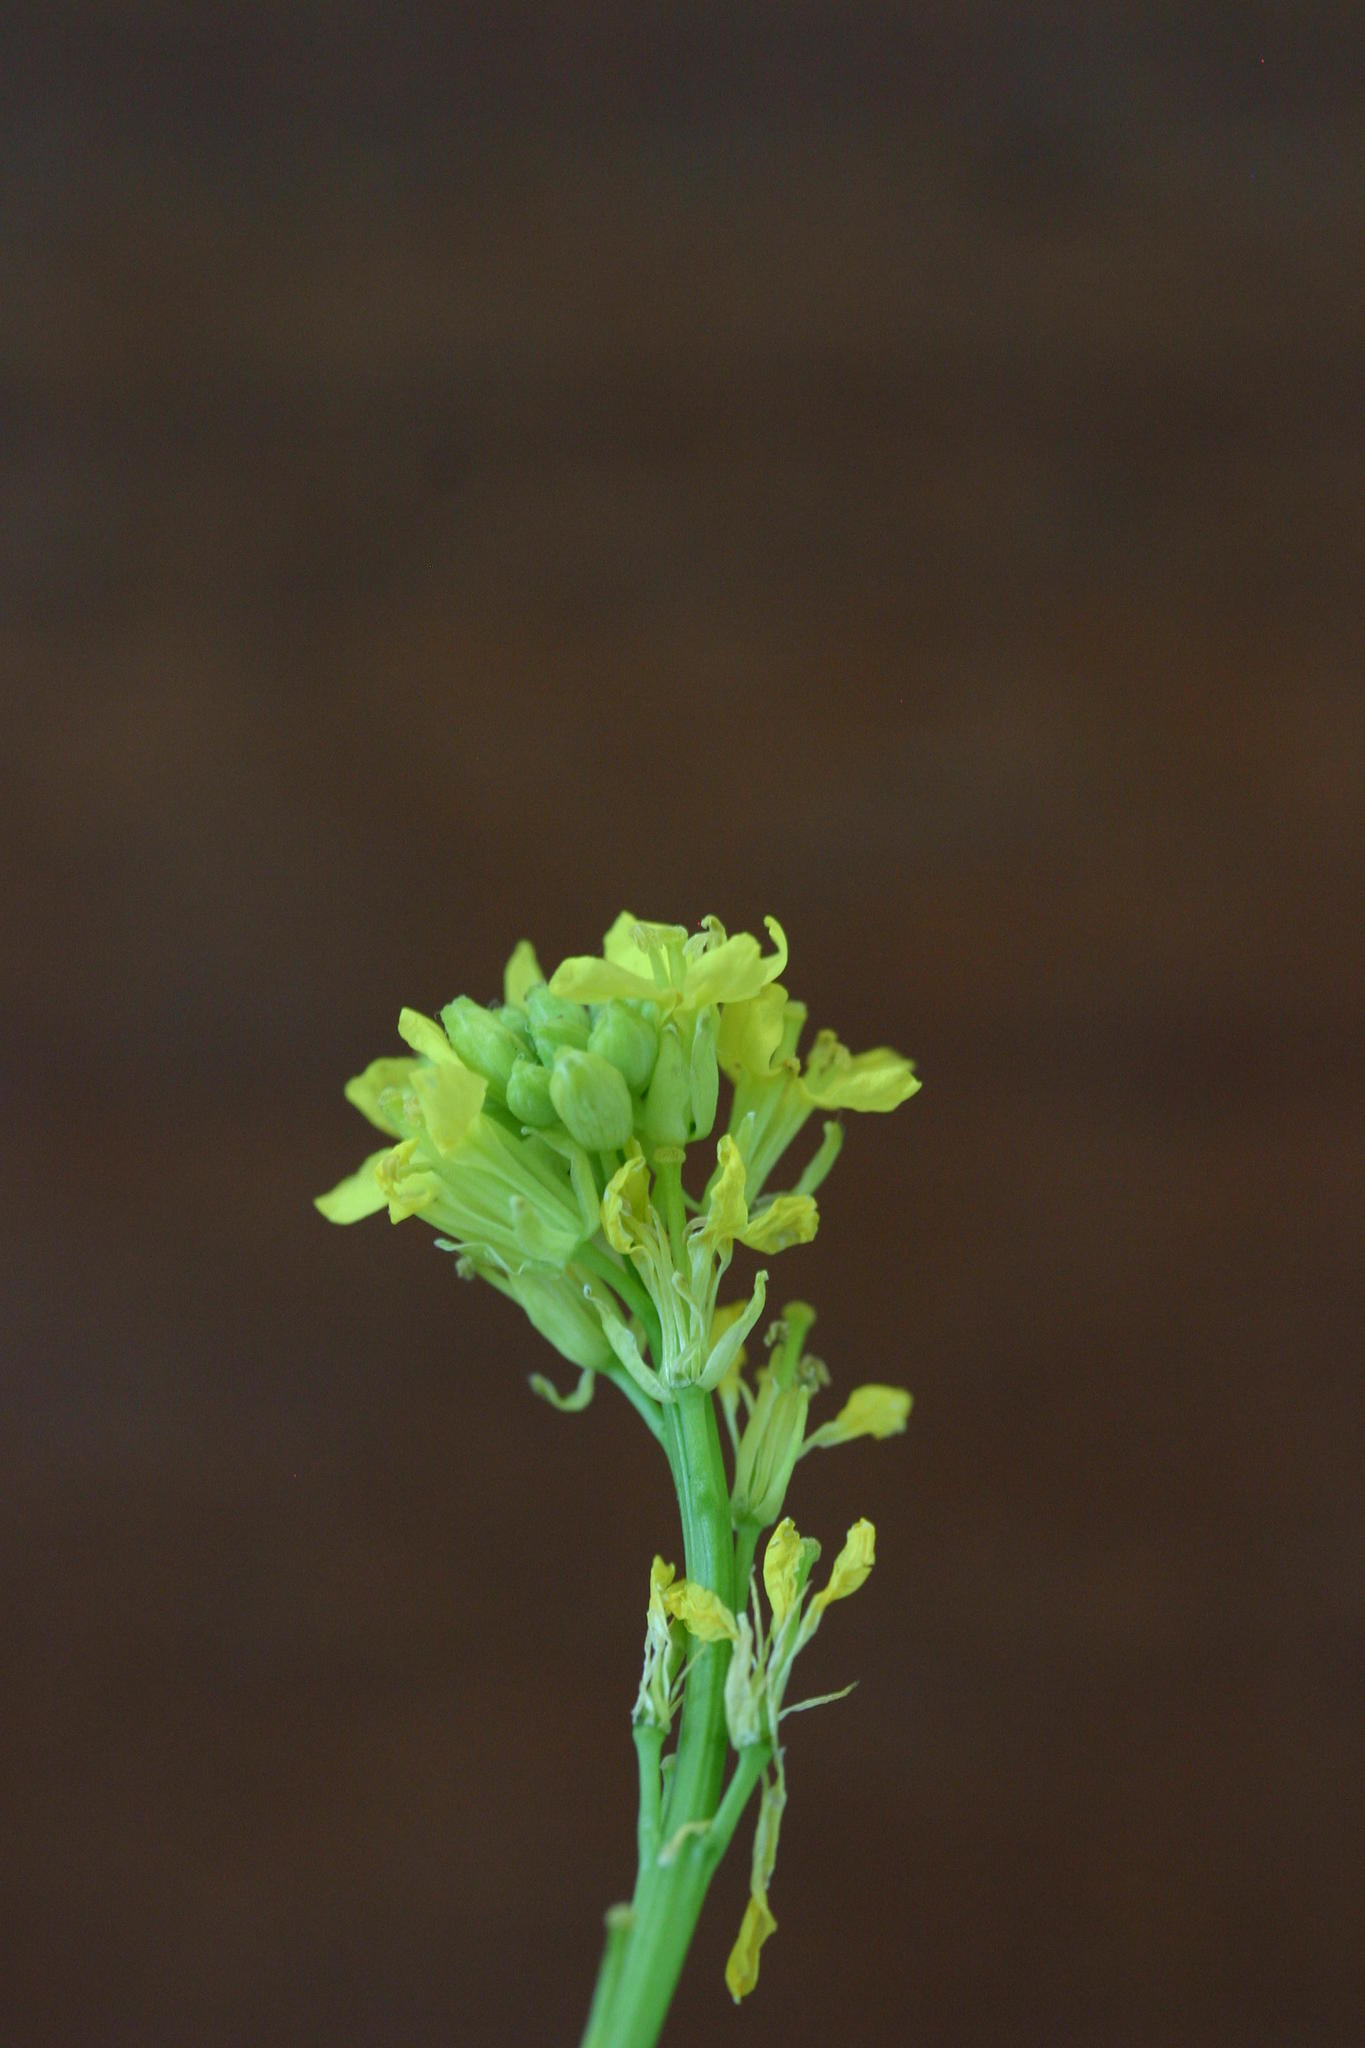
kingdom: Plantae
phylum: Tracheophyta
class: Magnoliopsida
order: Brassicales
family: Brassicaceae
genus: Sisymbrium
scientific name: Sisymbrium capense
